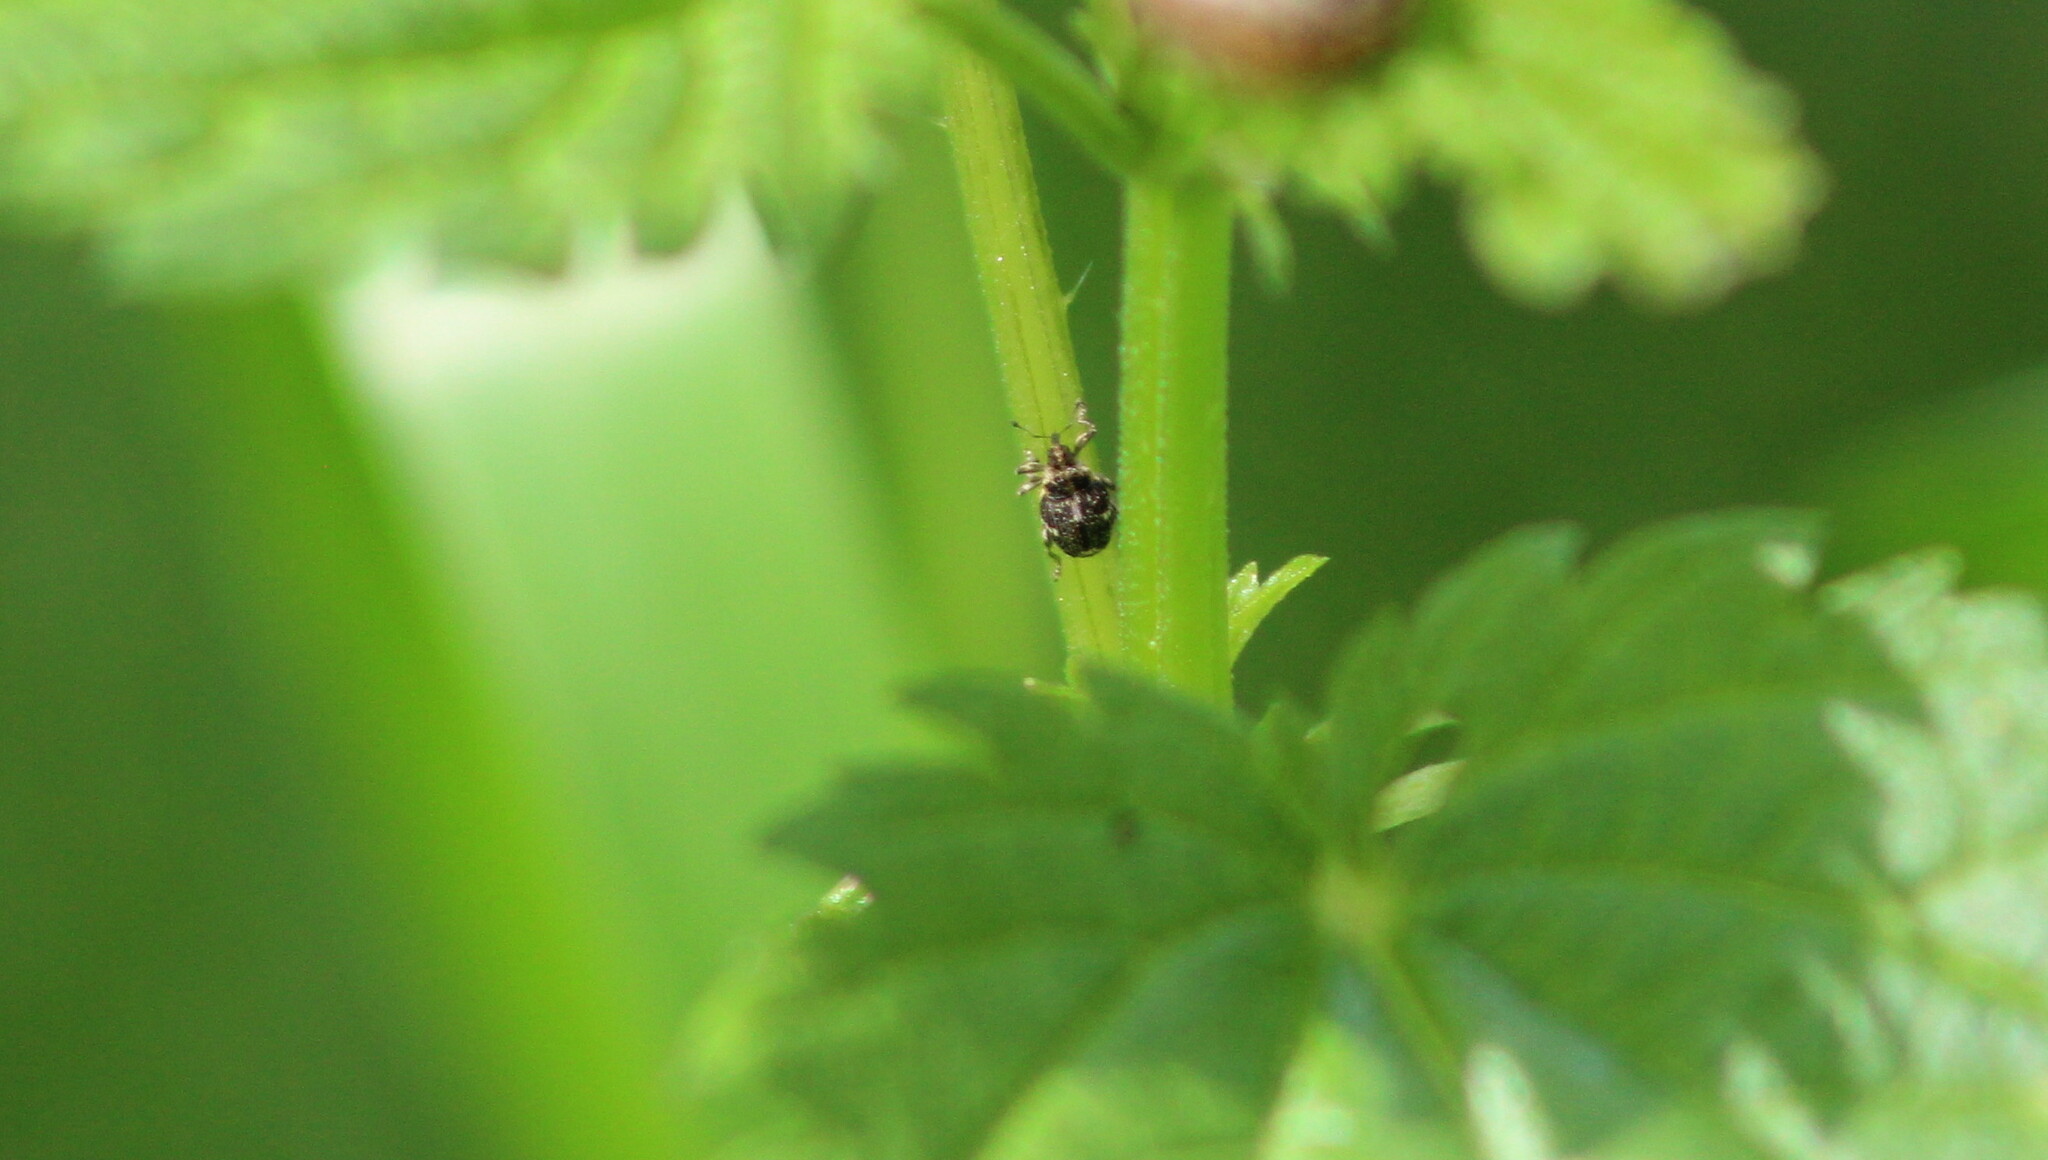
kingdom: Animalia
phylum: Arthropoda
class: Insecta
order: Coleoptera
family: Curculionidae
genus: Nedyus
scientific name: Nedyus quadrimaculatus
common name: Small nettle weevil
